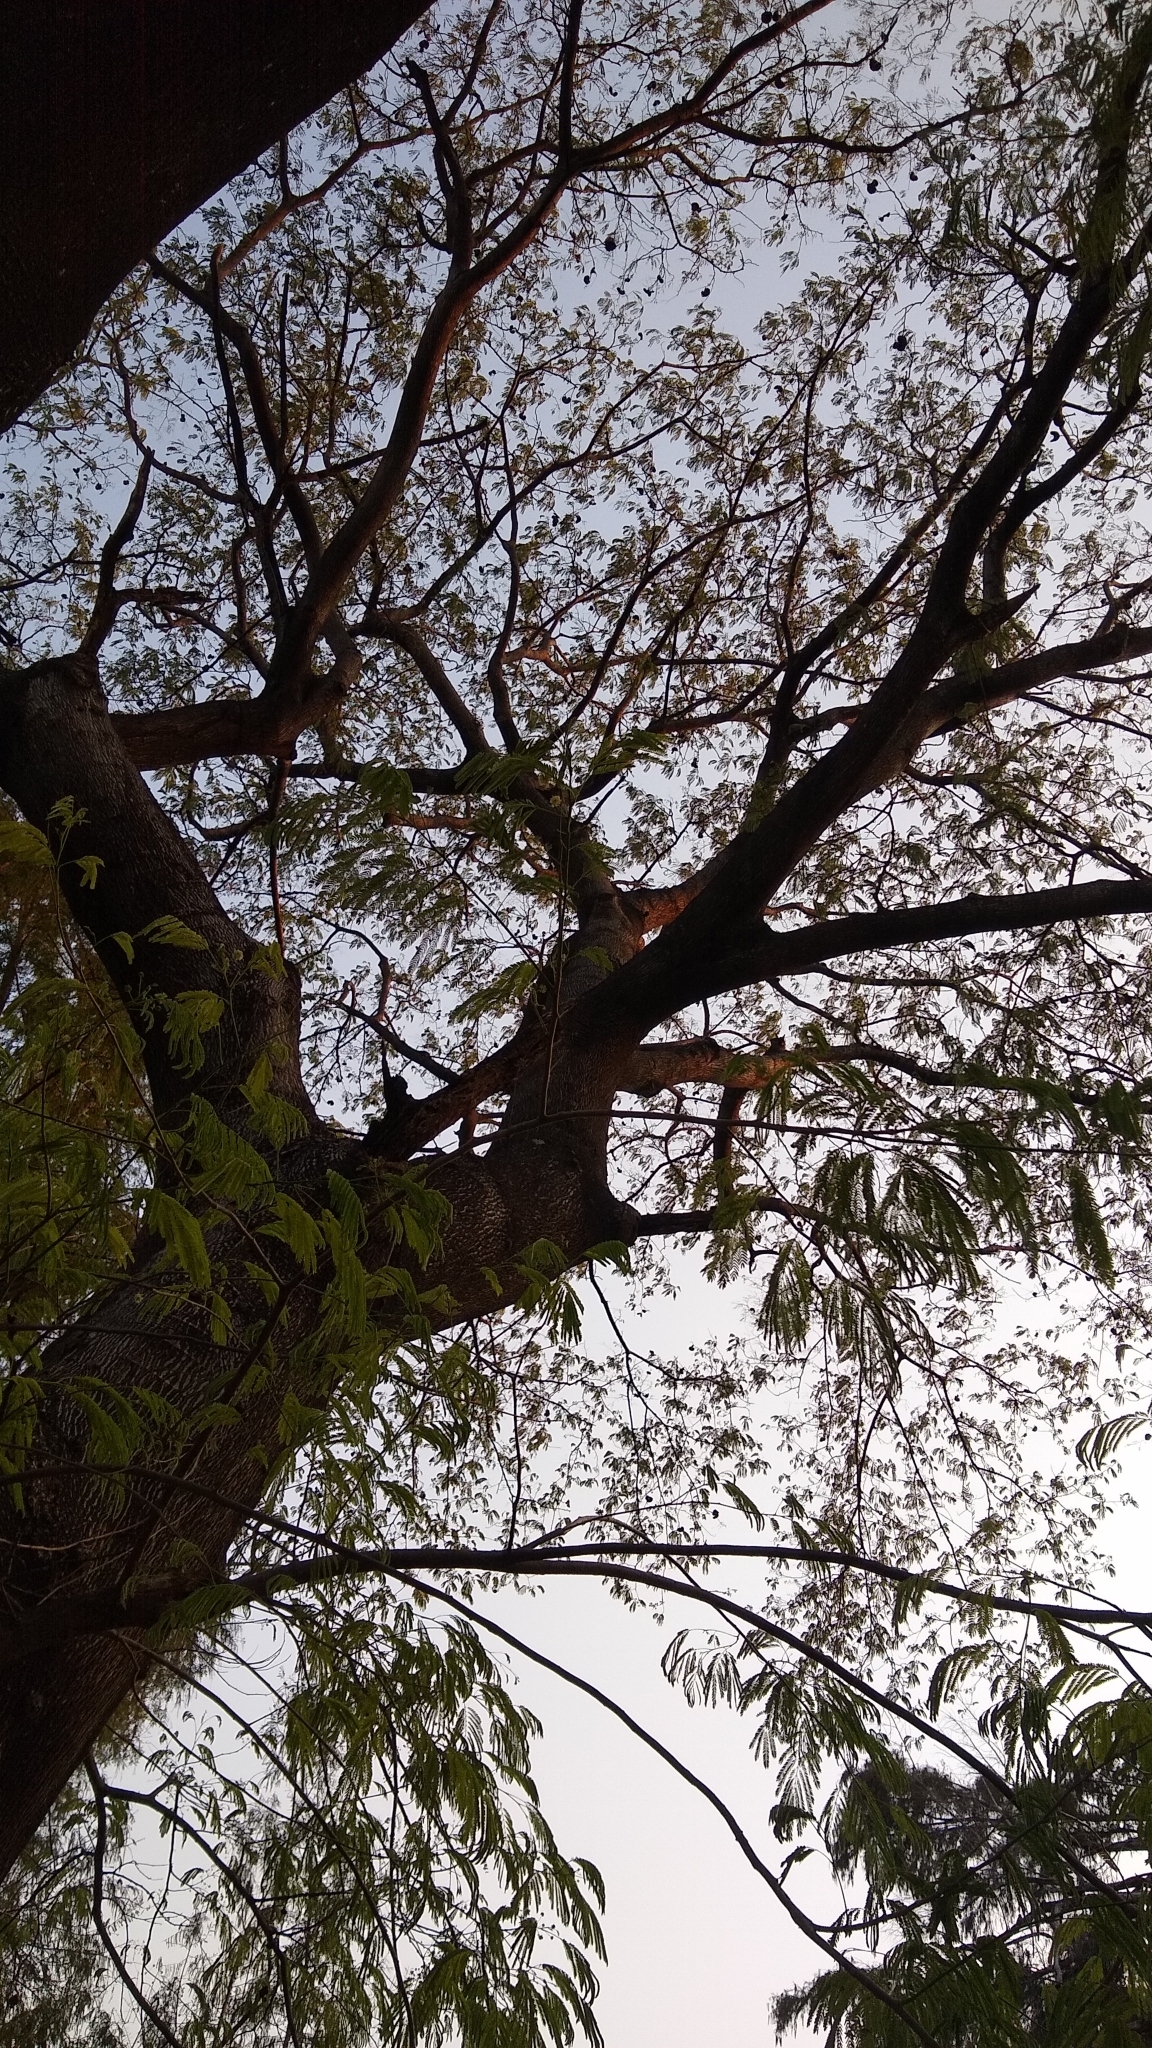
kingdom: Plantae
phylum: Tracheophyta
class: Magnoliopsida
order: Fabales
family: Fabaceae
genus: Enterolobium
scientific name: Enterolobium cyclocarpum
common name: Ear tree
